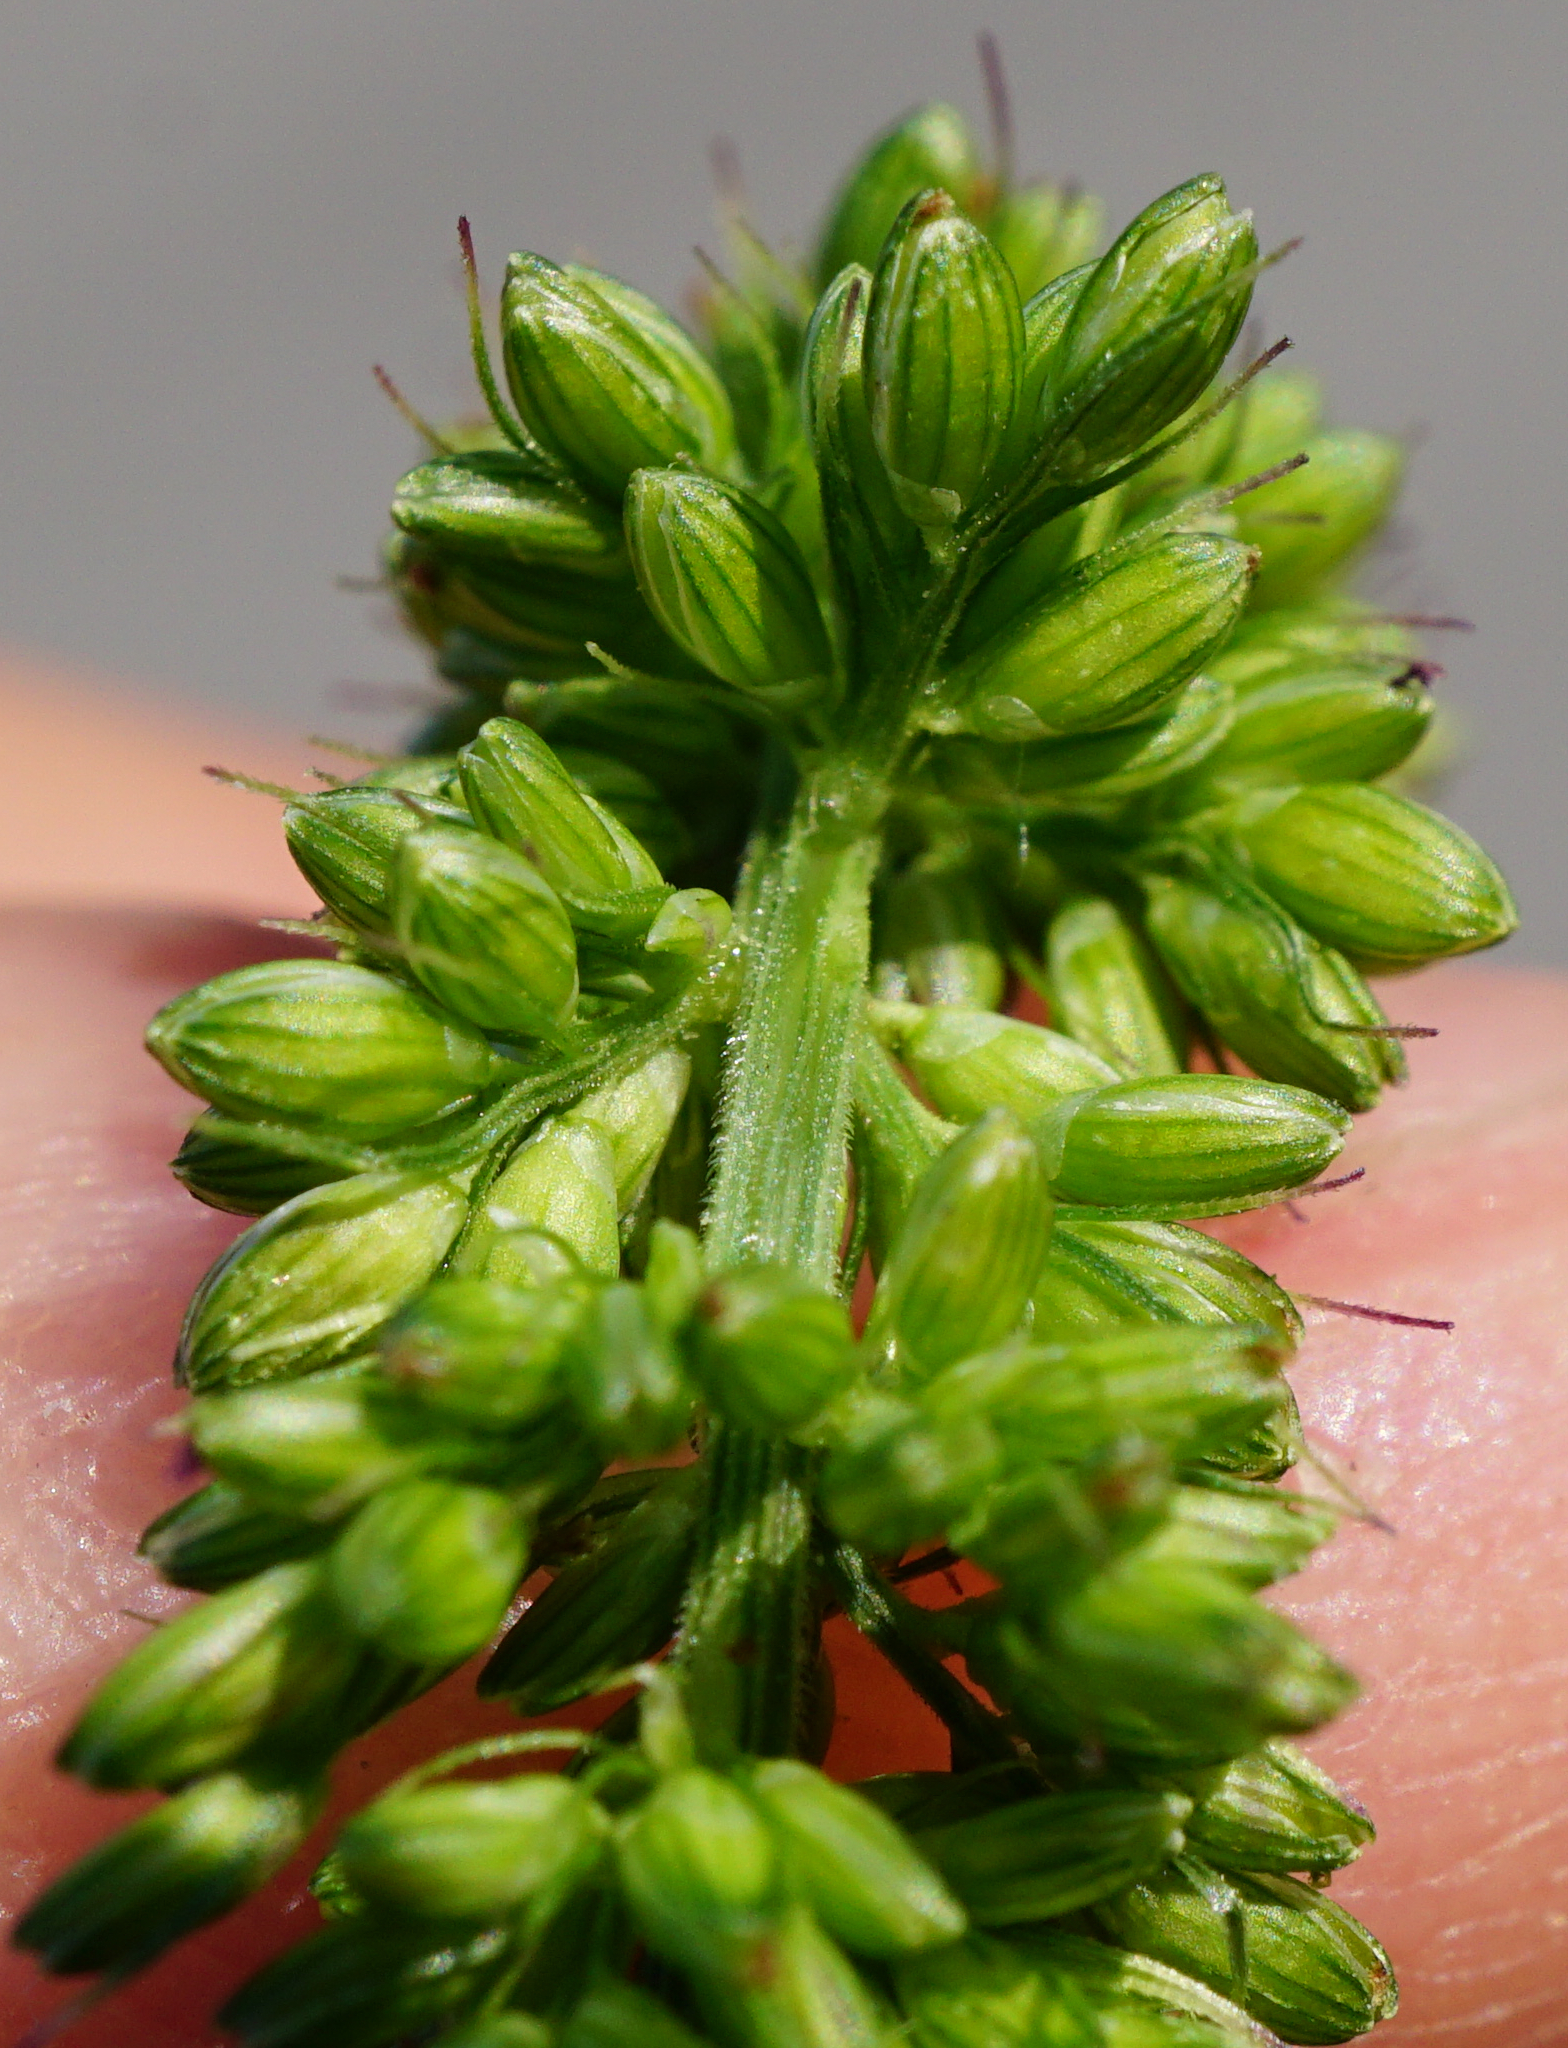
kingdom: Plantae
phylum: Tracheophyta
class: Liliopsida
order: Poales
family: Poaceae
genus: Setaria
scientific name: Setaria verticillata
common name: Hooked bristlegrass
